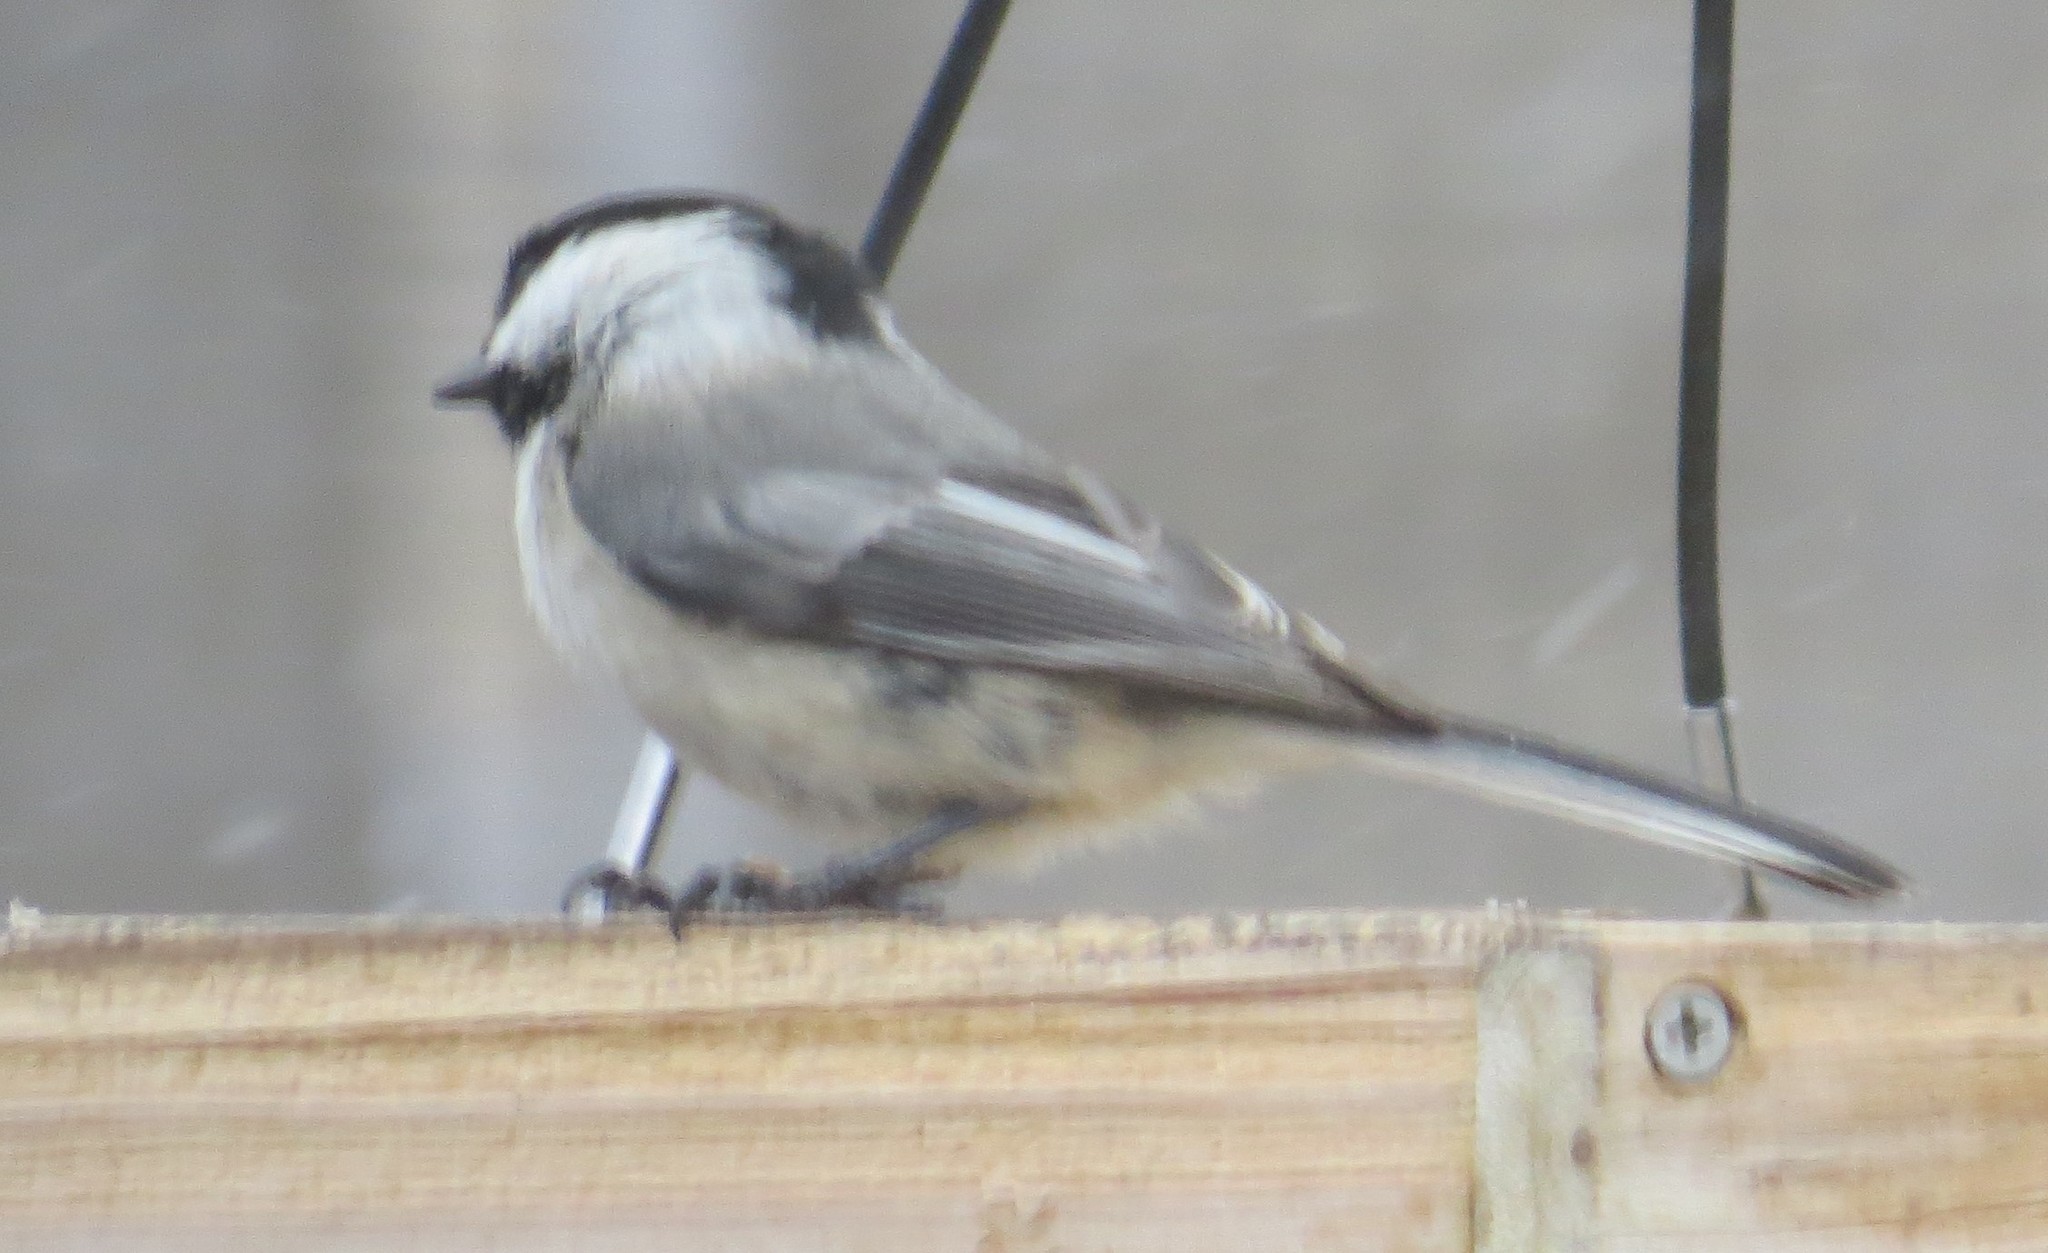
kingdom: Animalia
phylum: Chordata
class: Aves
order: Passeriformes
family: Paridae
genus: Poecile
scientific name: Poecile atricapillus
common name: Black-capped chickadee
